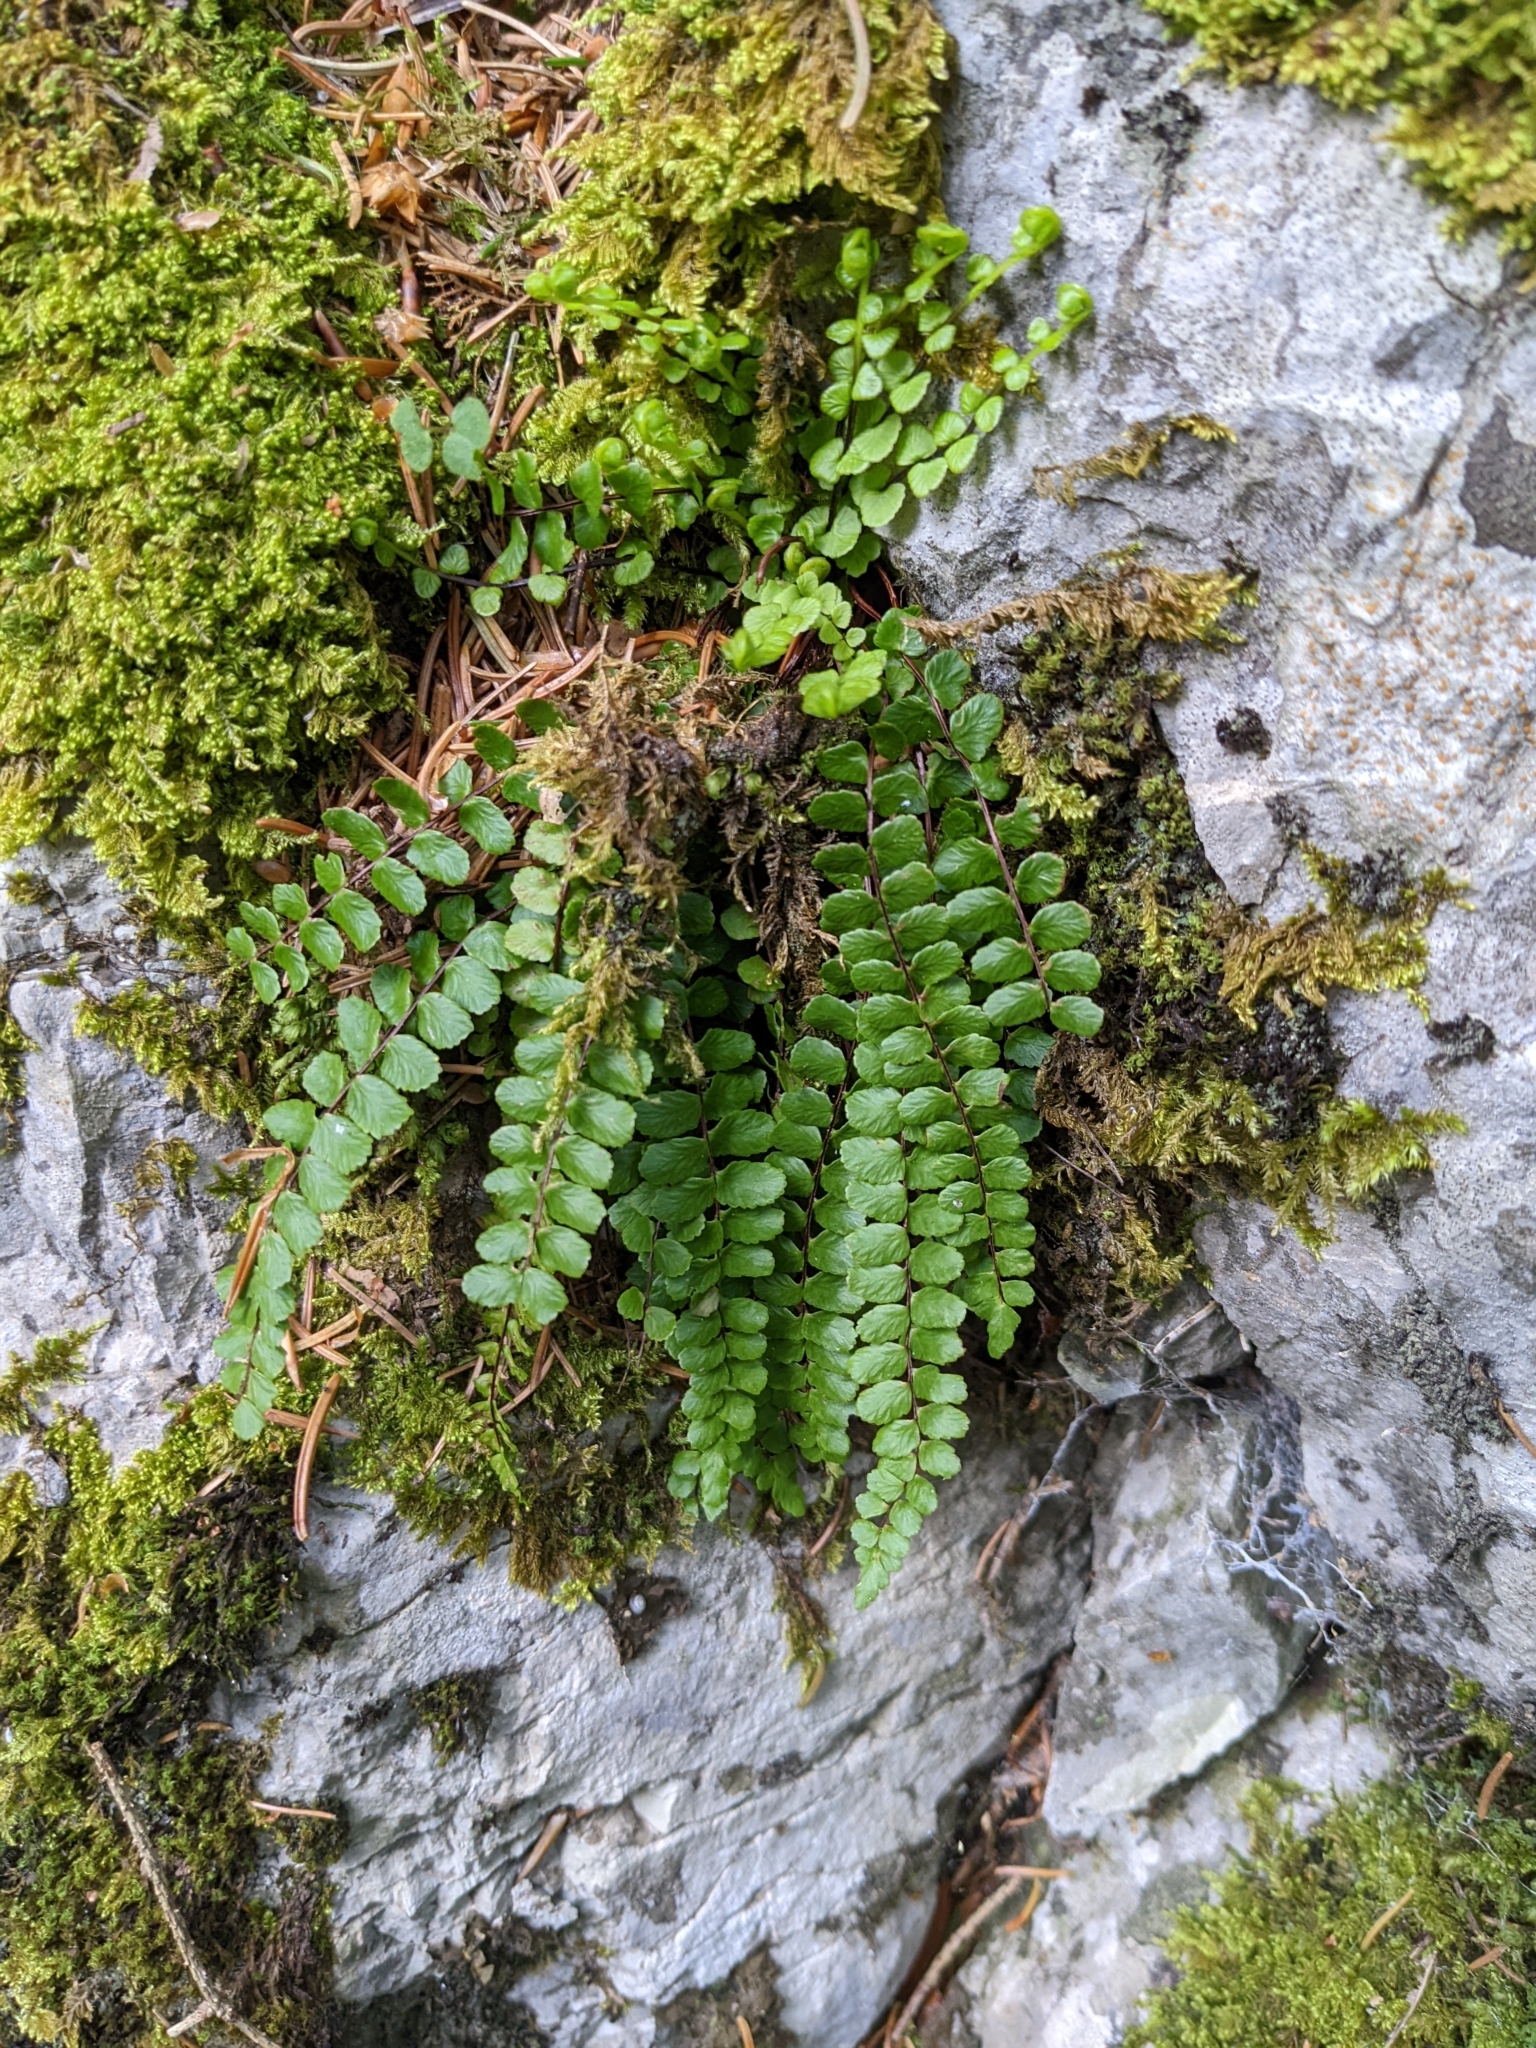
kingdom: Plantae
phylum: Tracheophyta
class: Polypodiopsida
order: Polypodiales
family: Aspleniaceae
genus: Asplenium
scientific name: Asplenium trichomanes
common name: Maidenhair spleenwort
